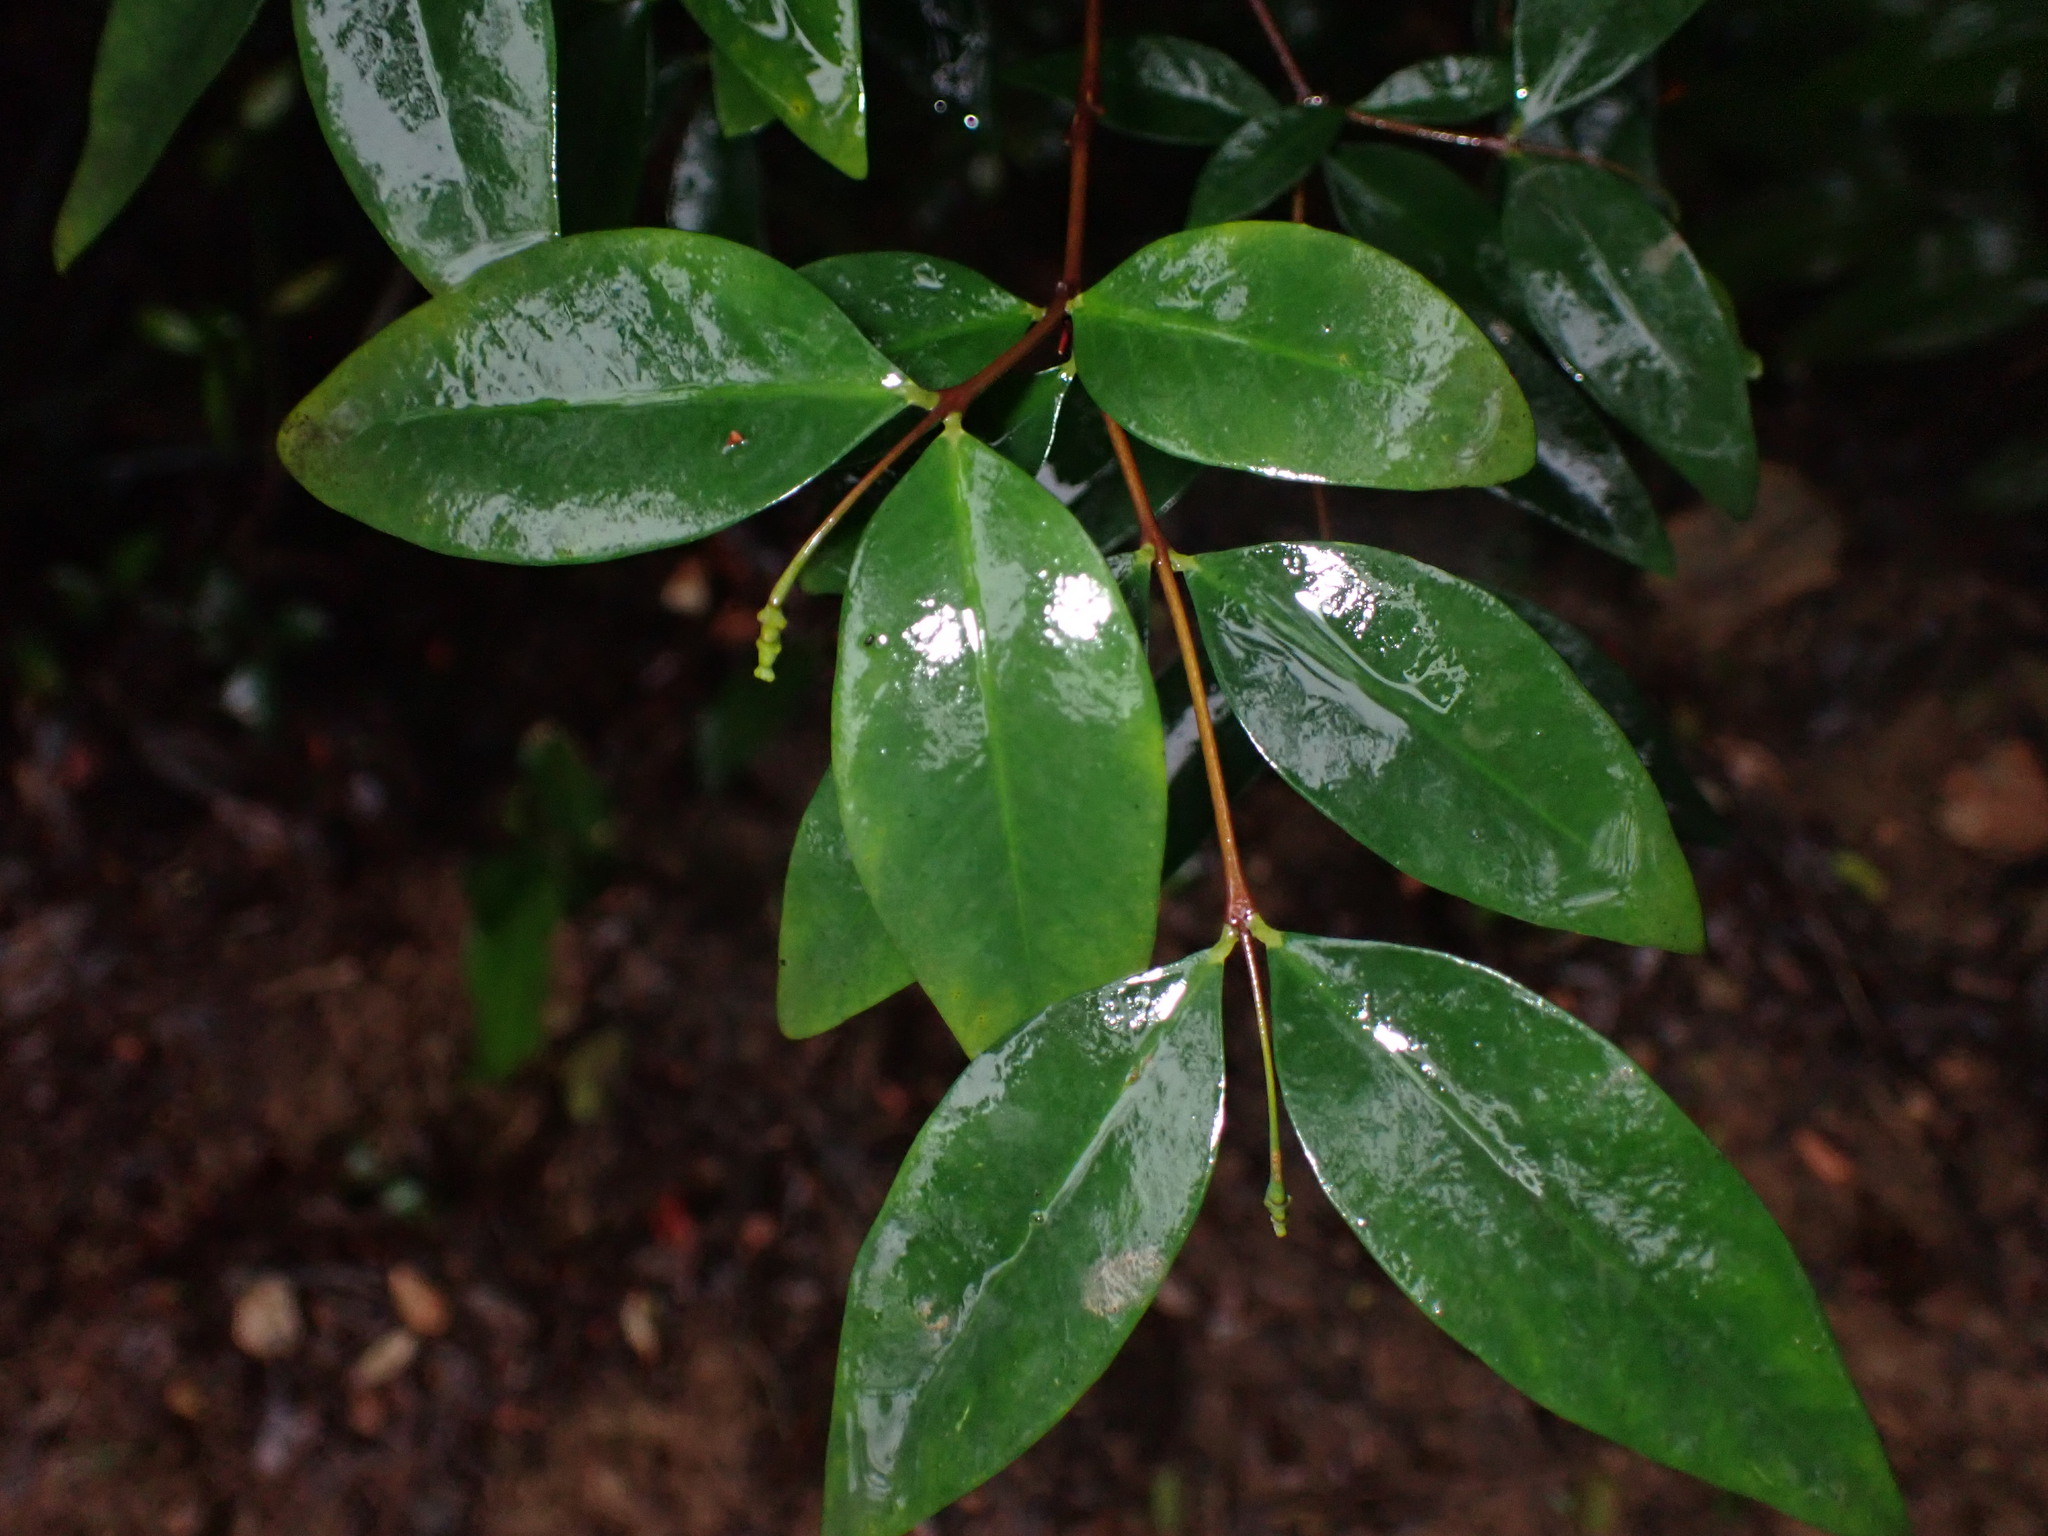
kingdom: Plantae
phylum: Tracheophyta
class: Magnoliopsida
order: Malvales
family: Thymelaeaceae
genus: Wikstroemia
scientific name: Wikstroemia nutans
